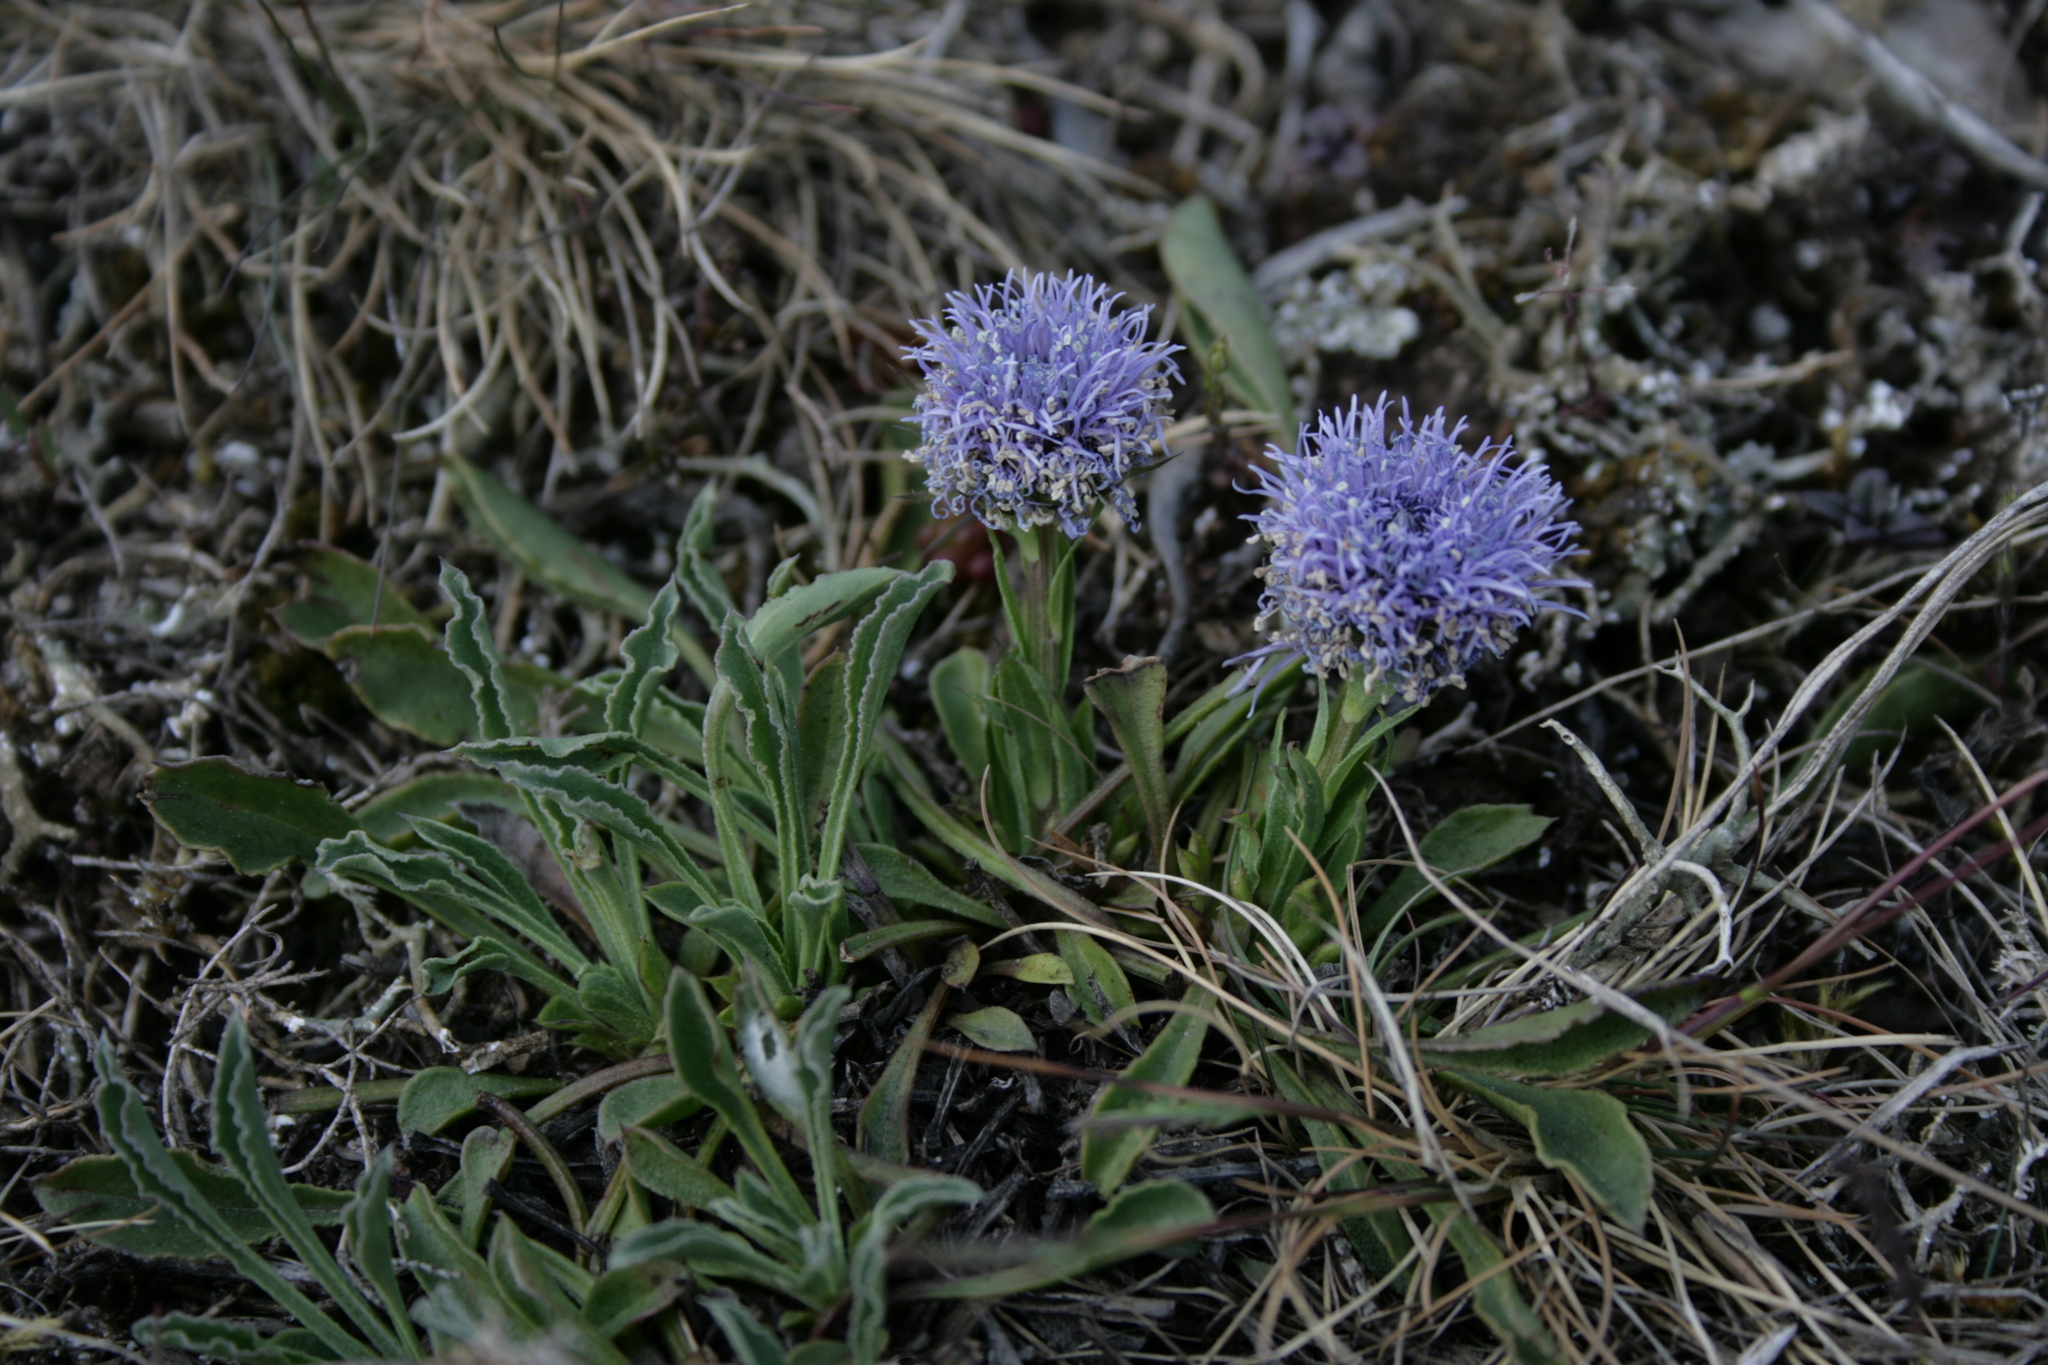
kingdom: Plantae
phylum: Tracheophyta
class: Magnoliopsida
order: Lamiales
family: Plantaginaceae
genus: Globularia
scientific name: Globularia vulgaris
